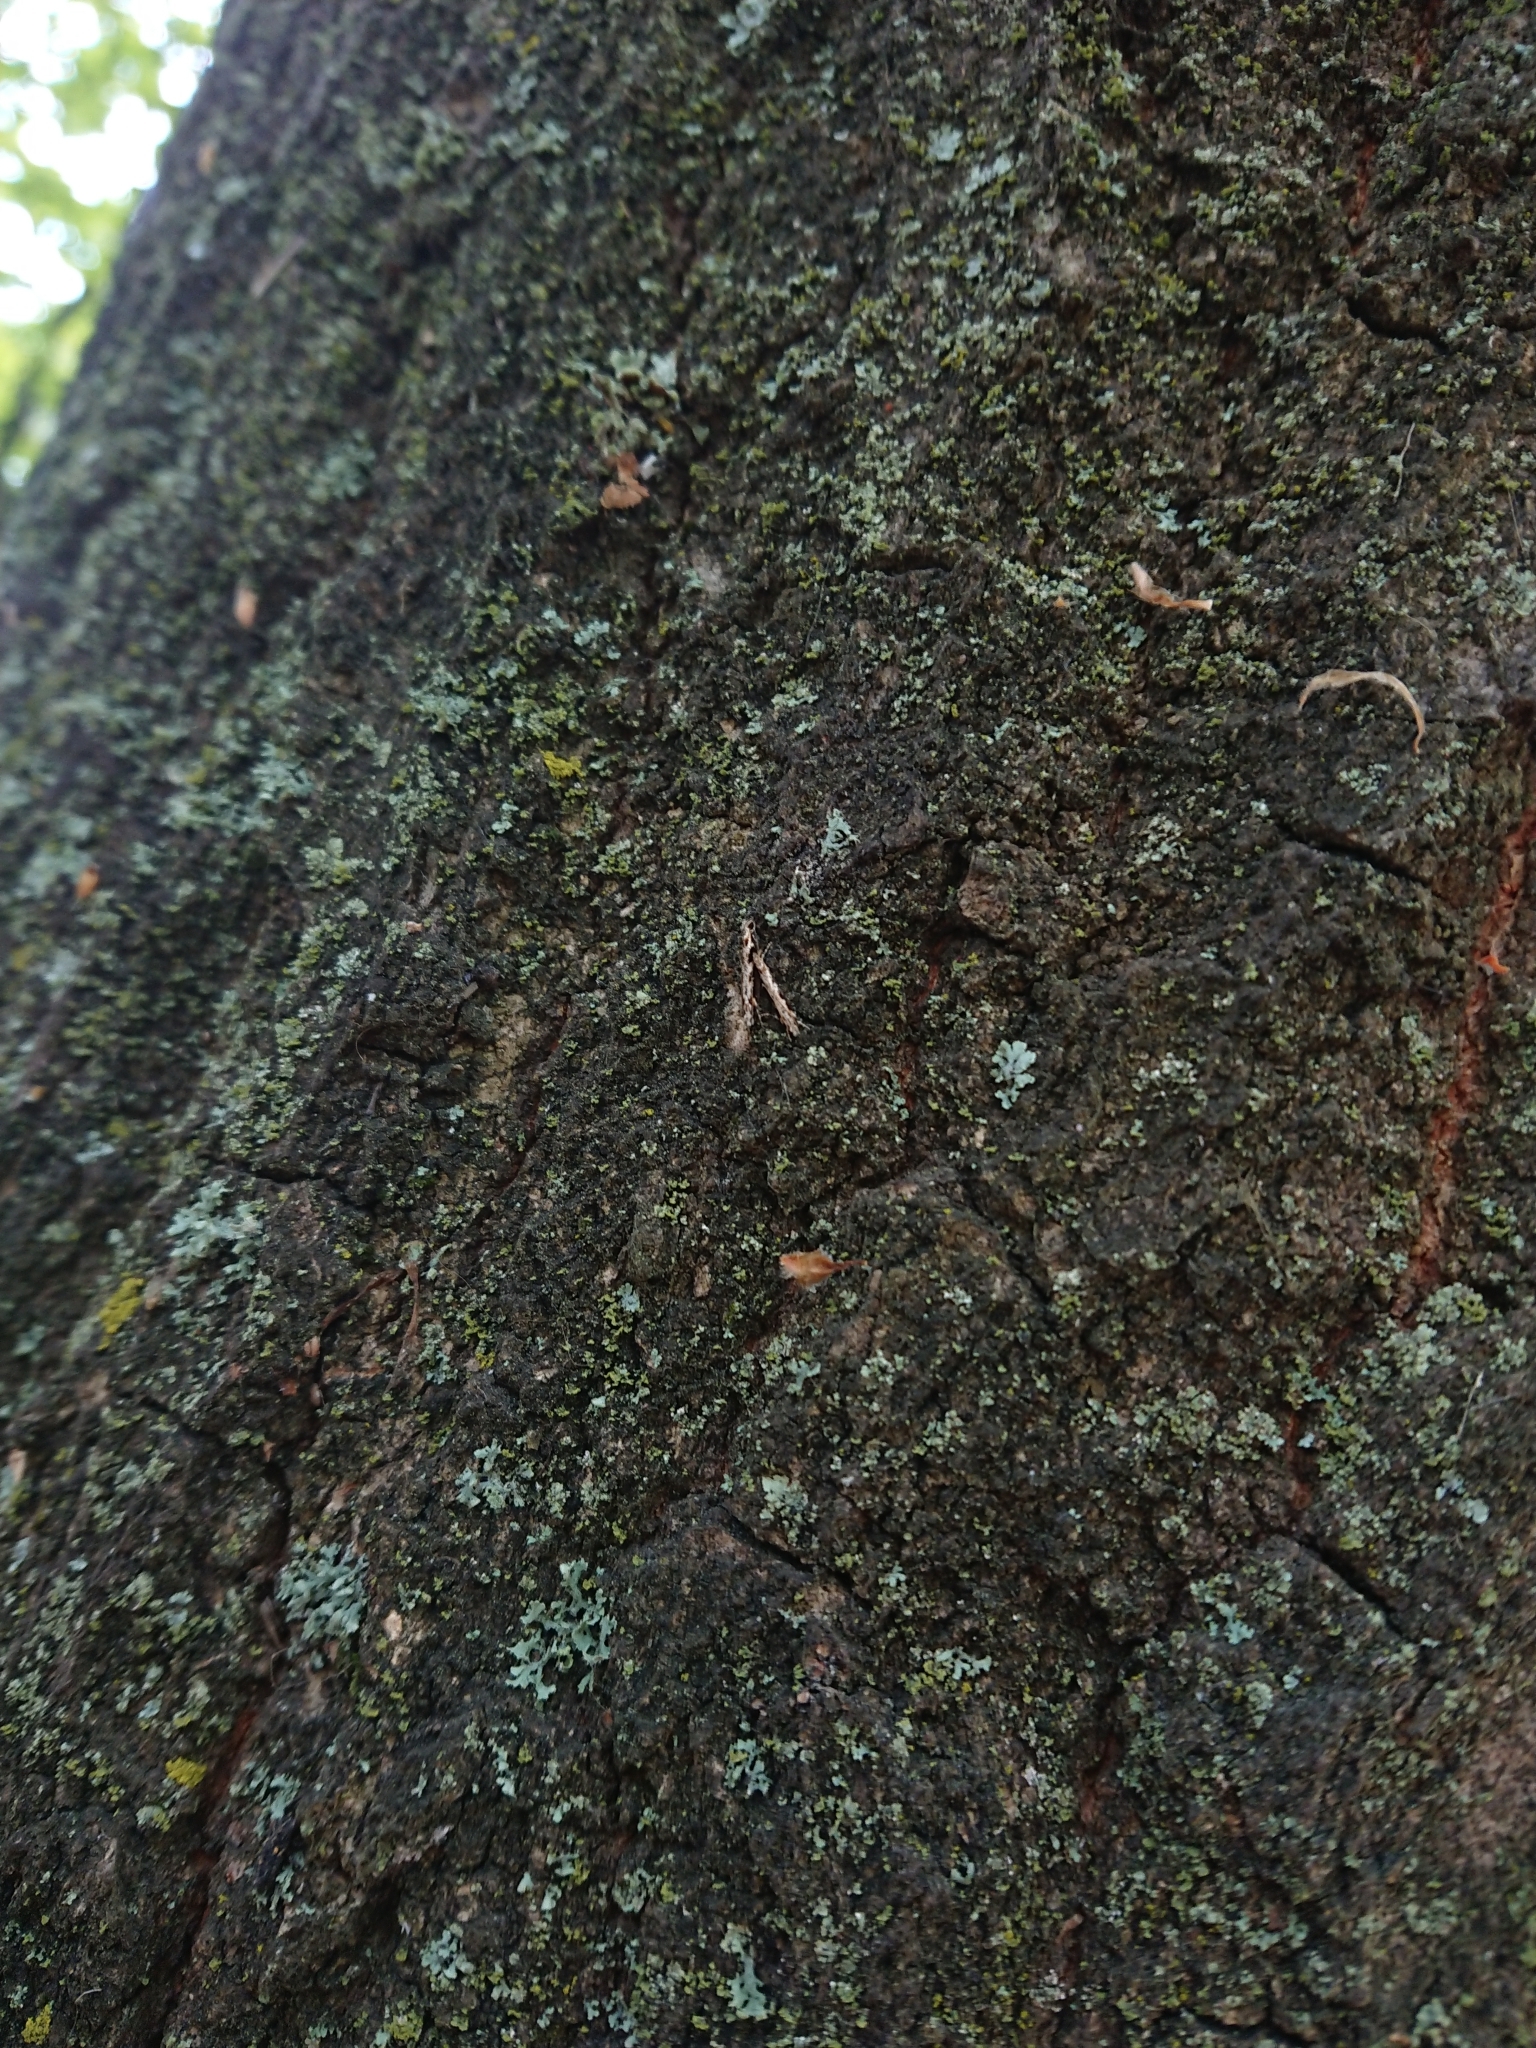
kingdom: Animalia
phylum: Arthropoda
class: Insecta
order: Lepidoptera
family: Tineidae
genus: Erechthias
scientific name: Erechthias fulguritella
